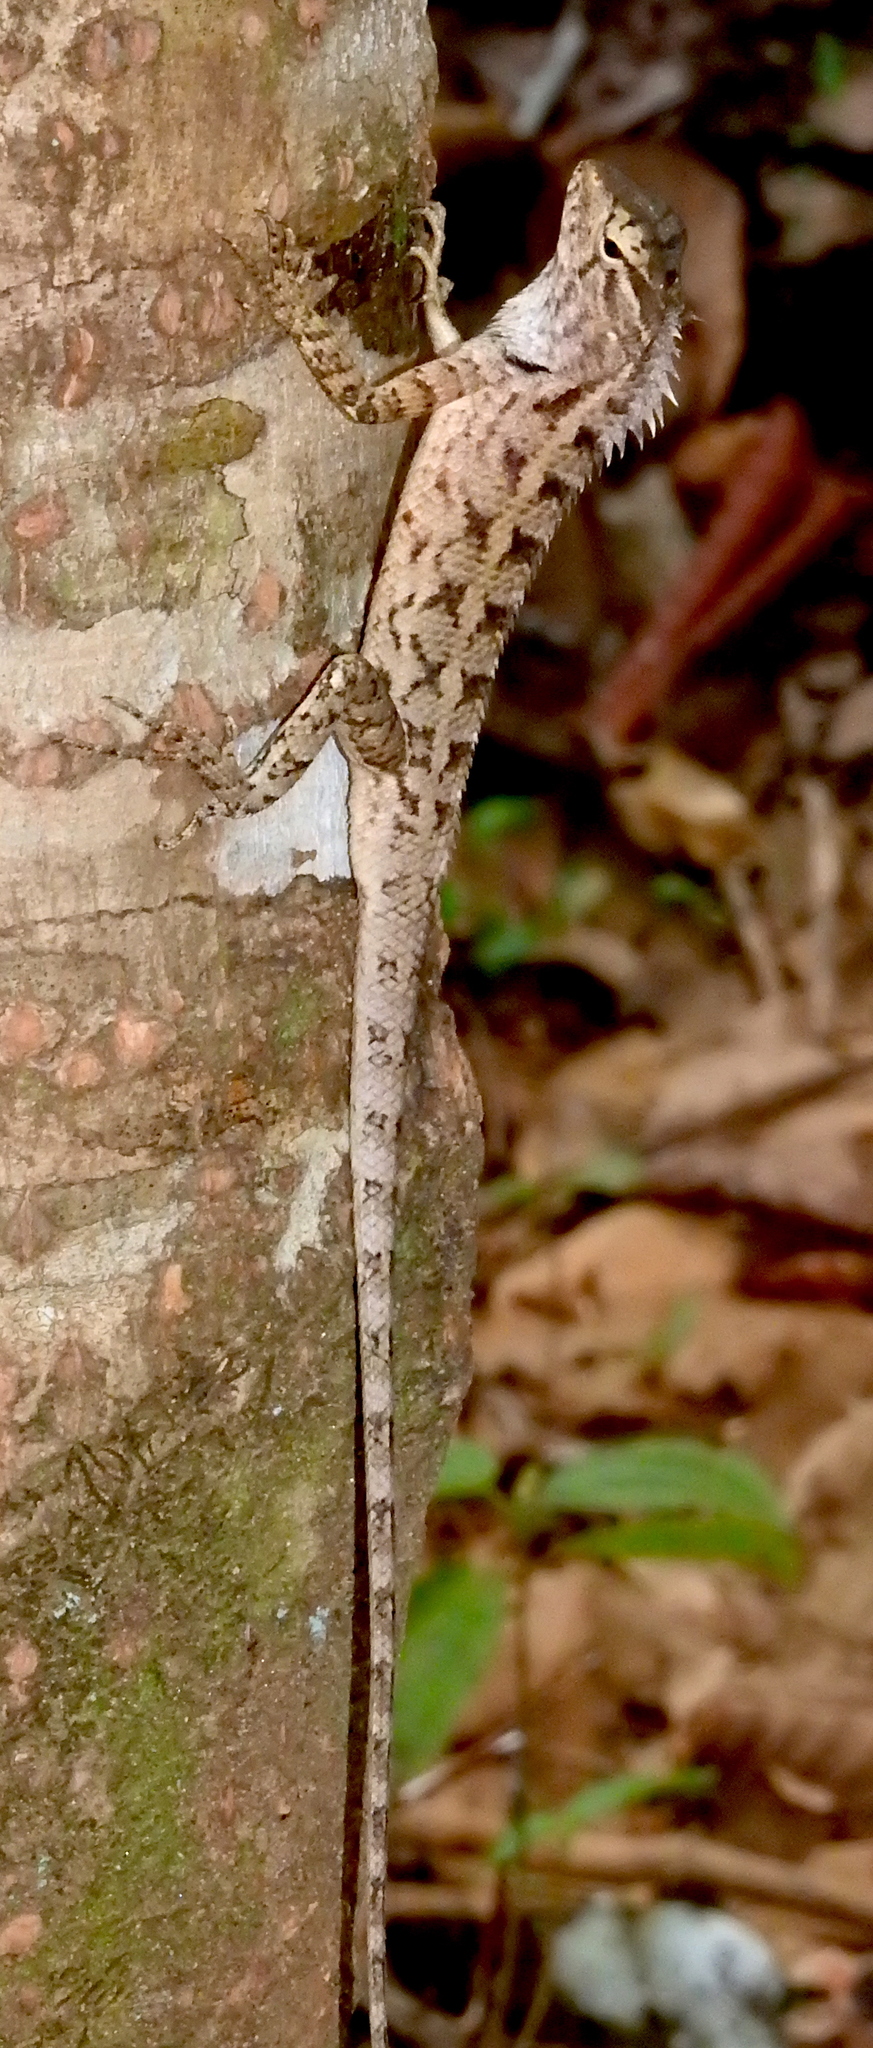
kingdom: Animalia
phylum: Chordata
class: Squamata
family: Agamidae
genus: Calotes
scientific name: Calotes versicolor
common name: Oriental garden lizard
